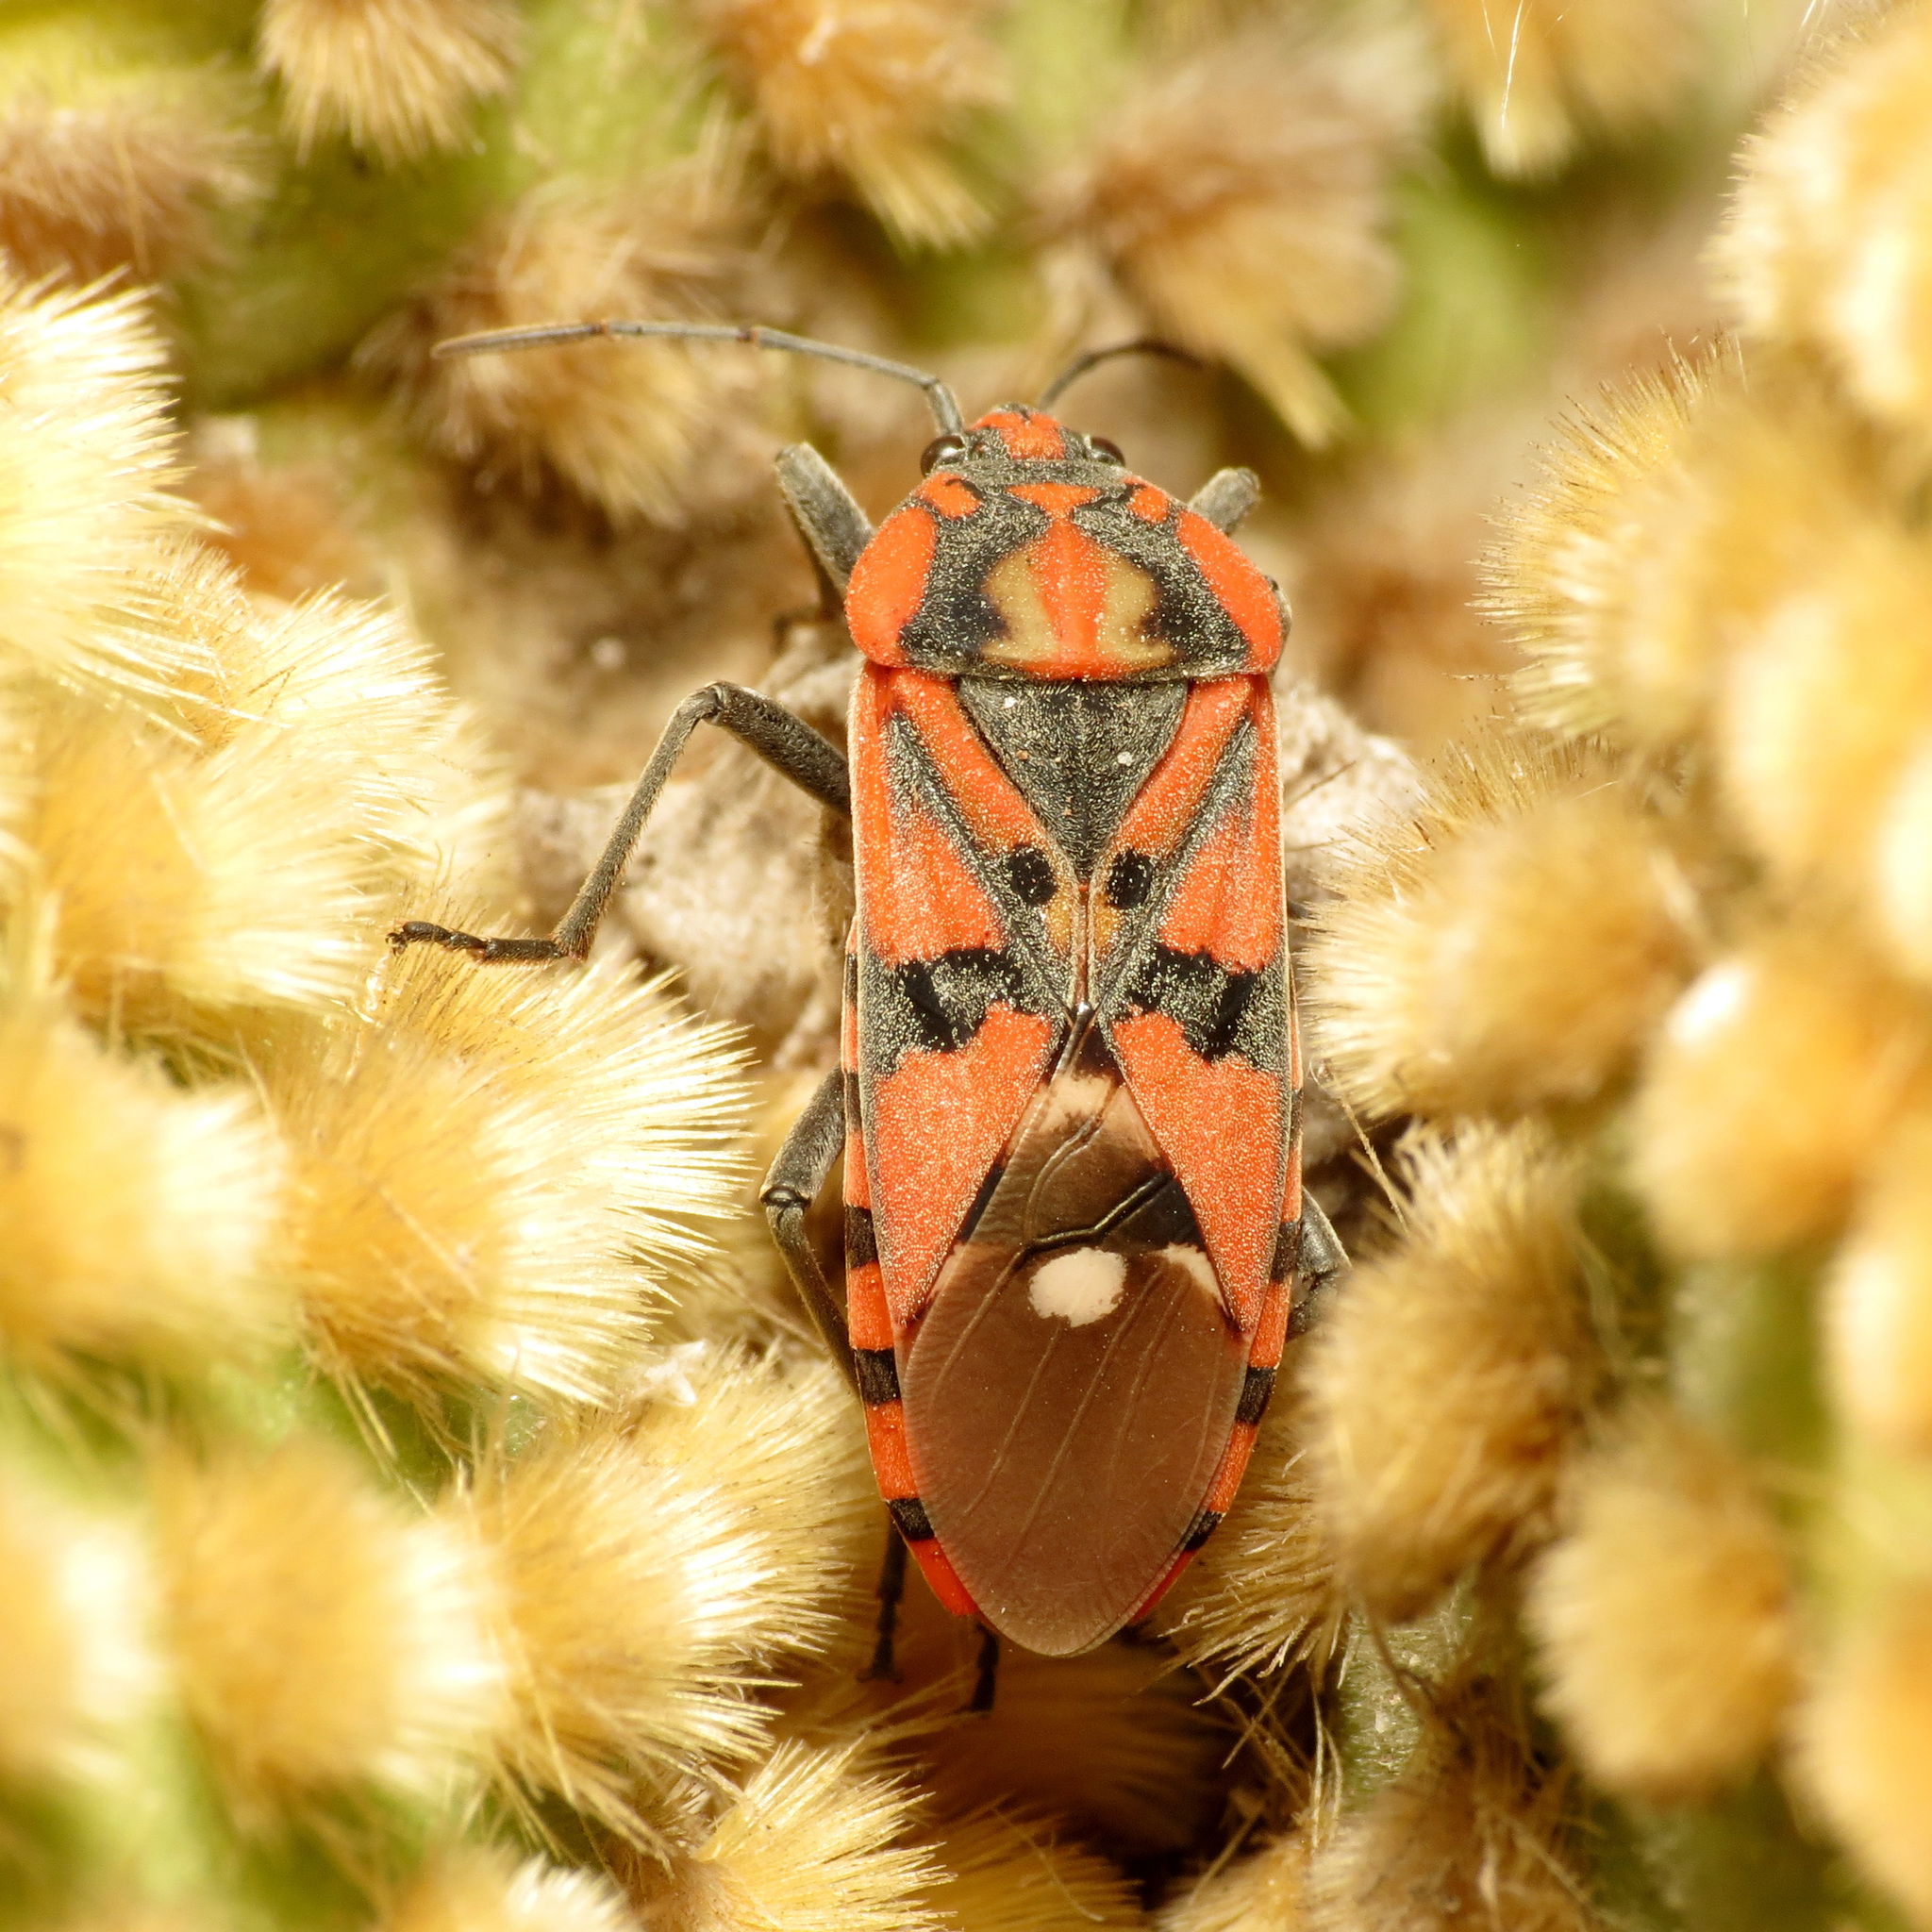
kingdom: Animalia
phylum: Arthropoda
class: Insecta
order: Hemiptera
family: Lygaeidae
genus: Spilostethus
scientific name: Spilostethus pandurus
